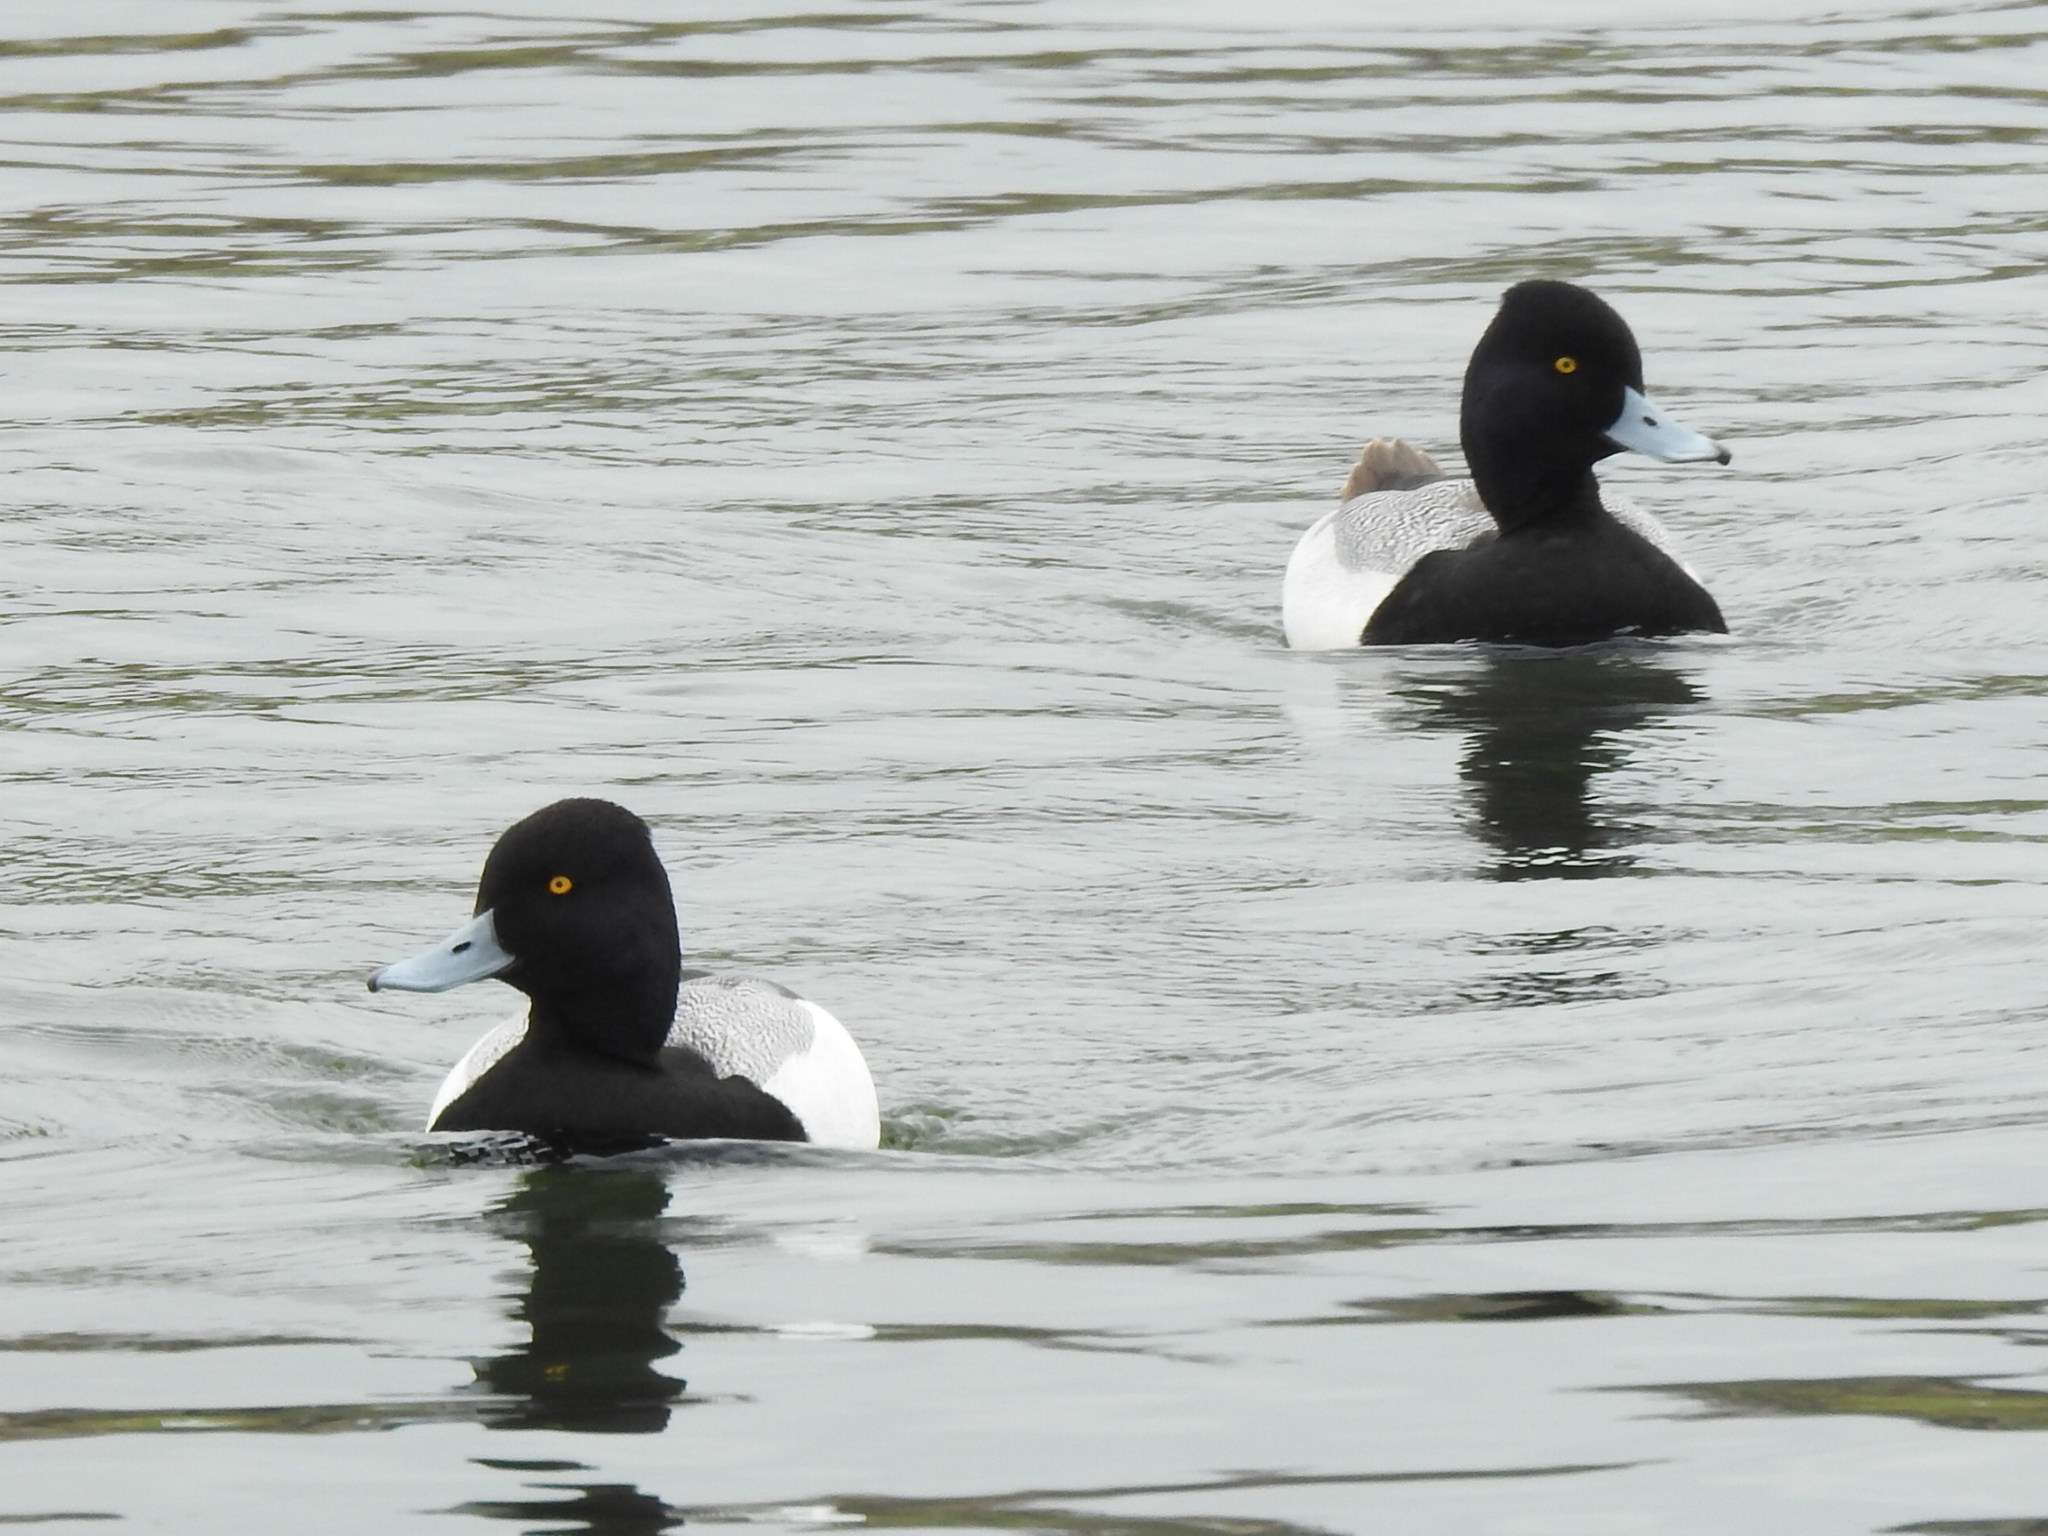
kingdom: Animalia
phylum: Chordata
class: Aves
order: Anseriformes
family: Anatidae
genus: Aythya
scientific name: Aythya affinis
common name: Lesser scaup
